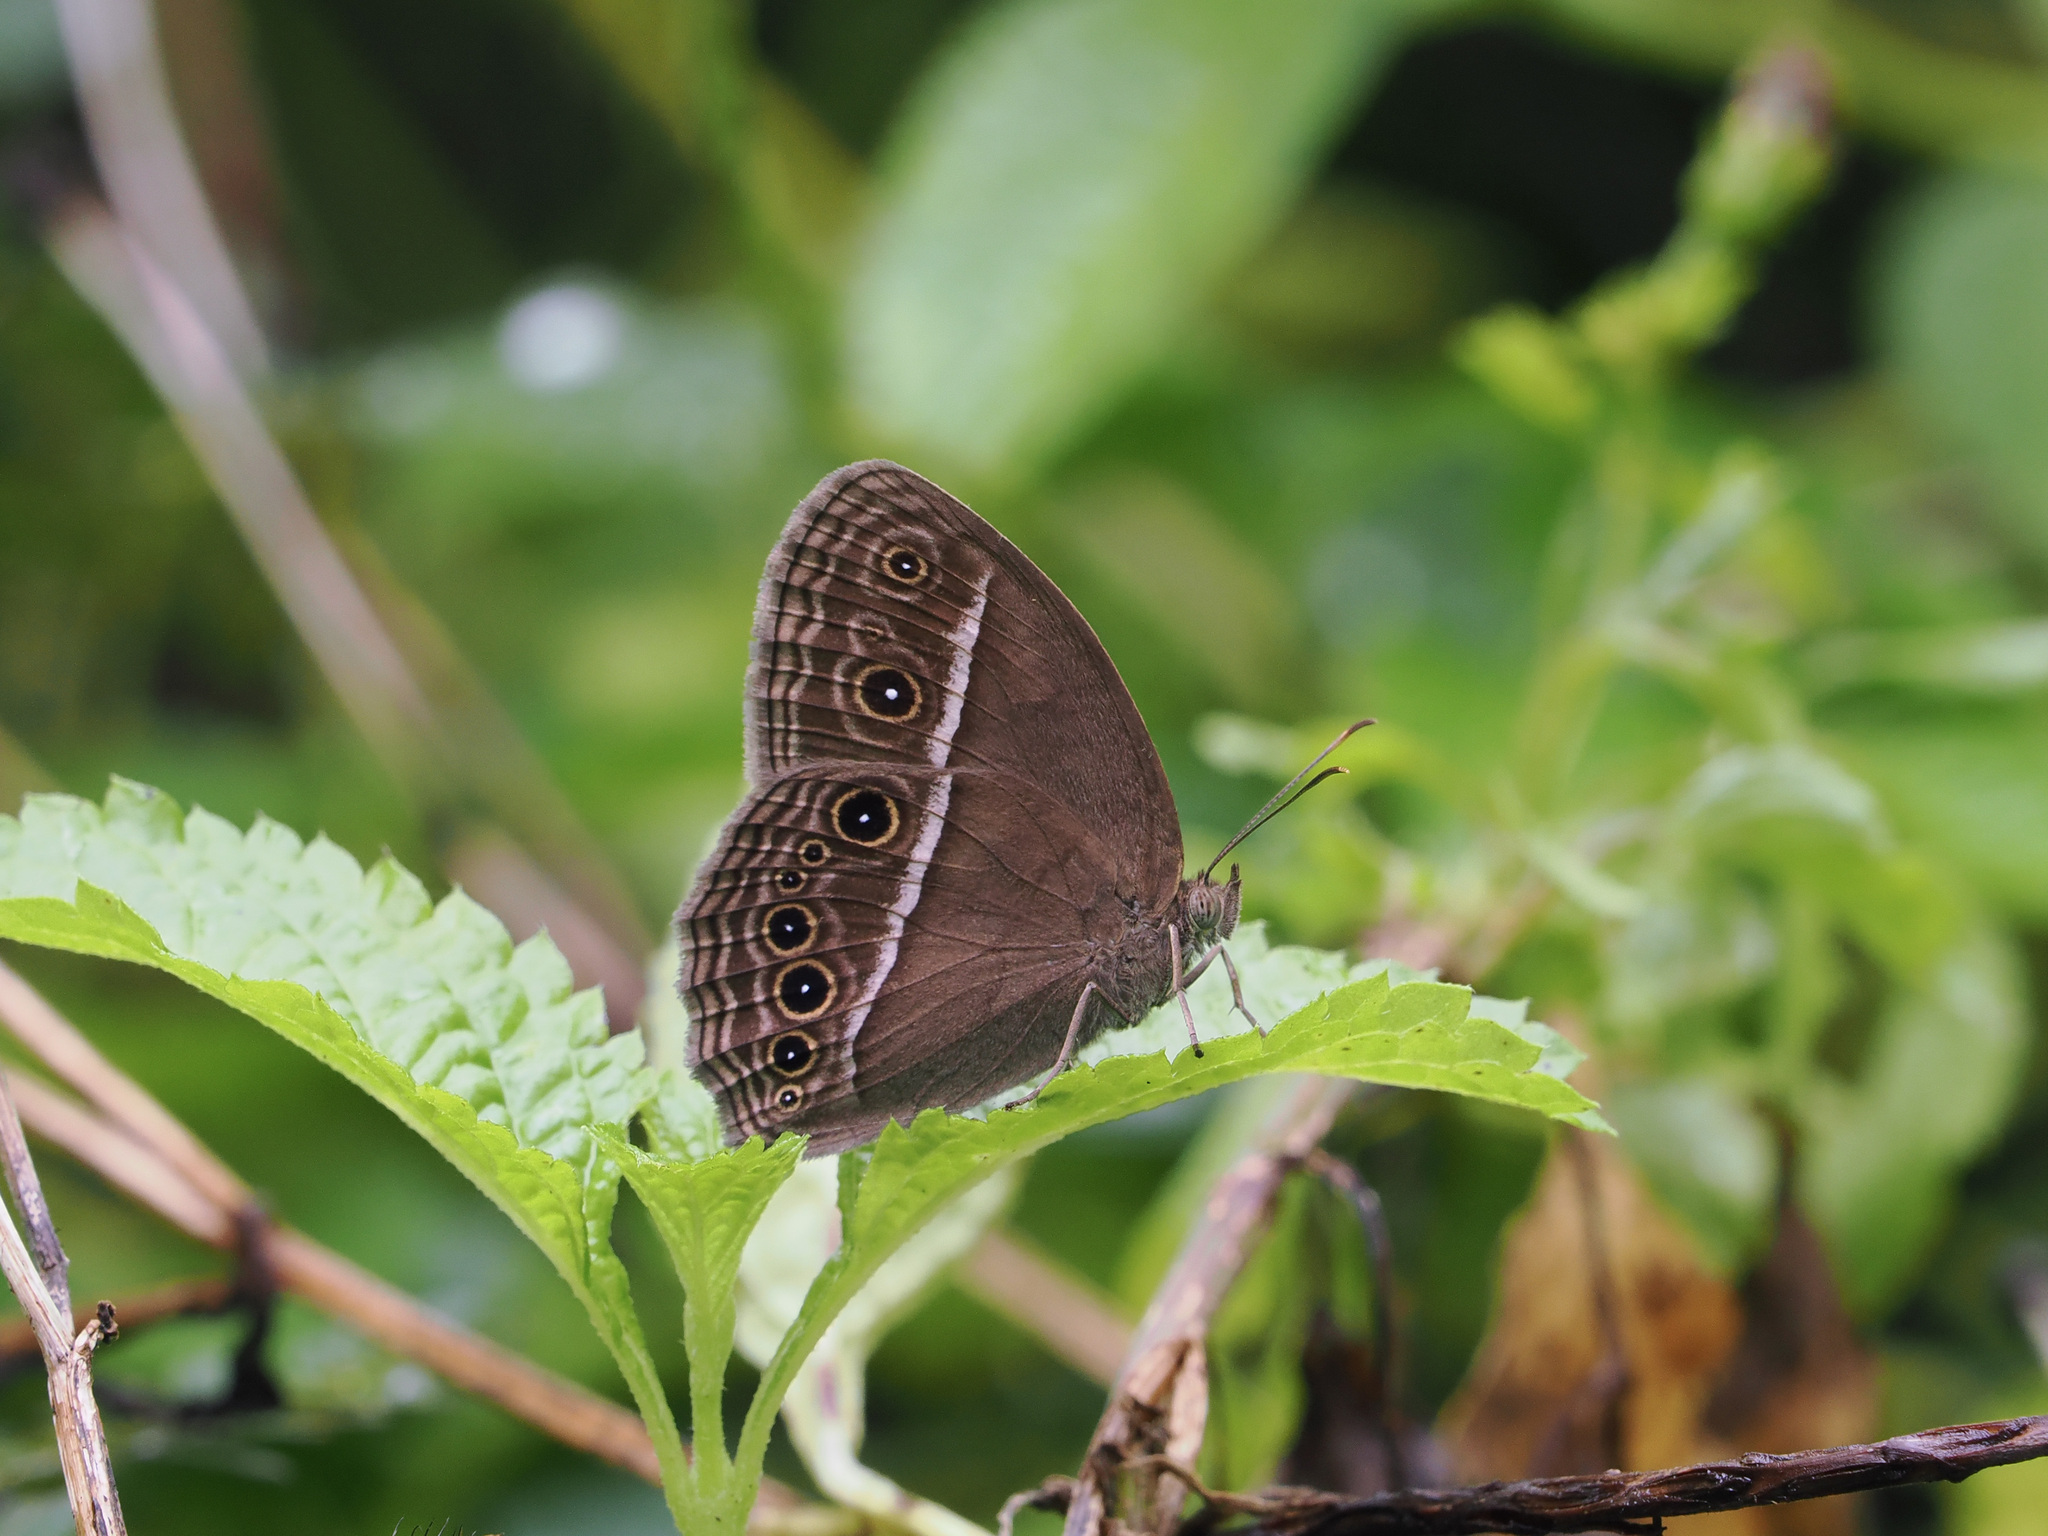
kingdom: Animalia
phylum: Arthropoda
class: Insecta
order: Lepidoptera
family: Nymphalidae
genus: Mycalesis
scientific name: Mycalesis perseoides
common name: Burmese bushbrown
